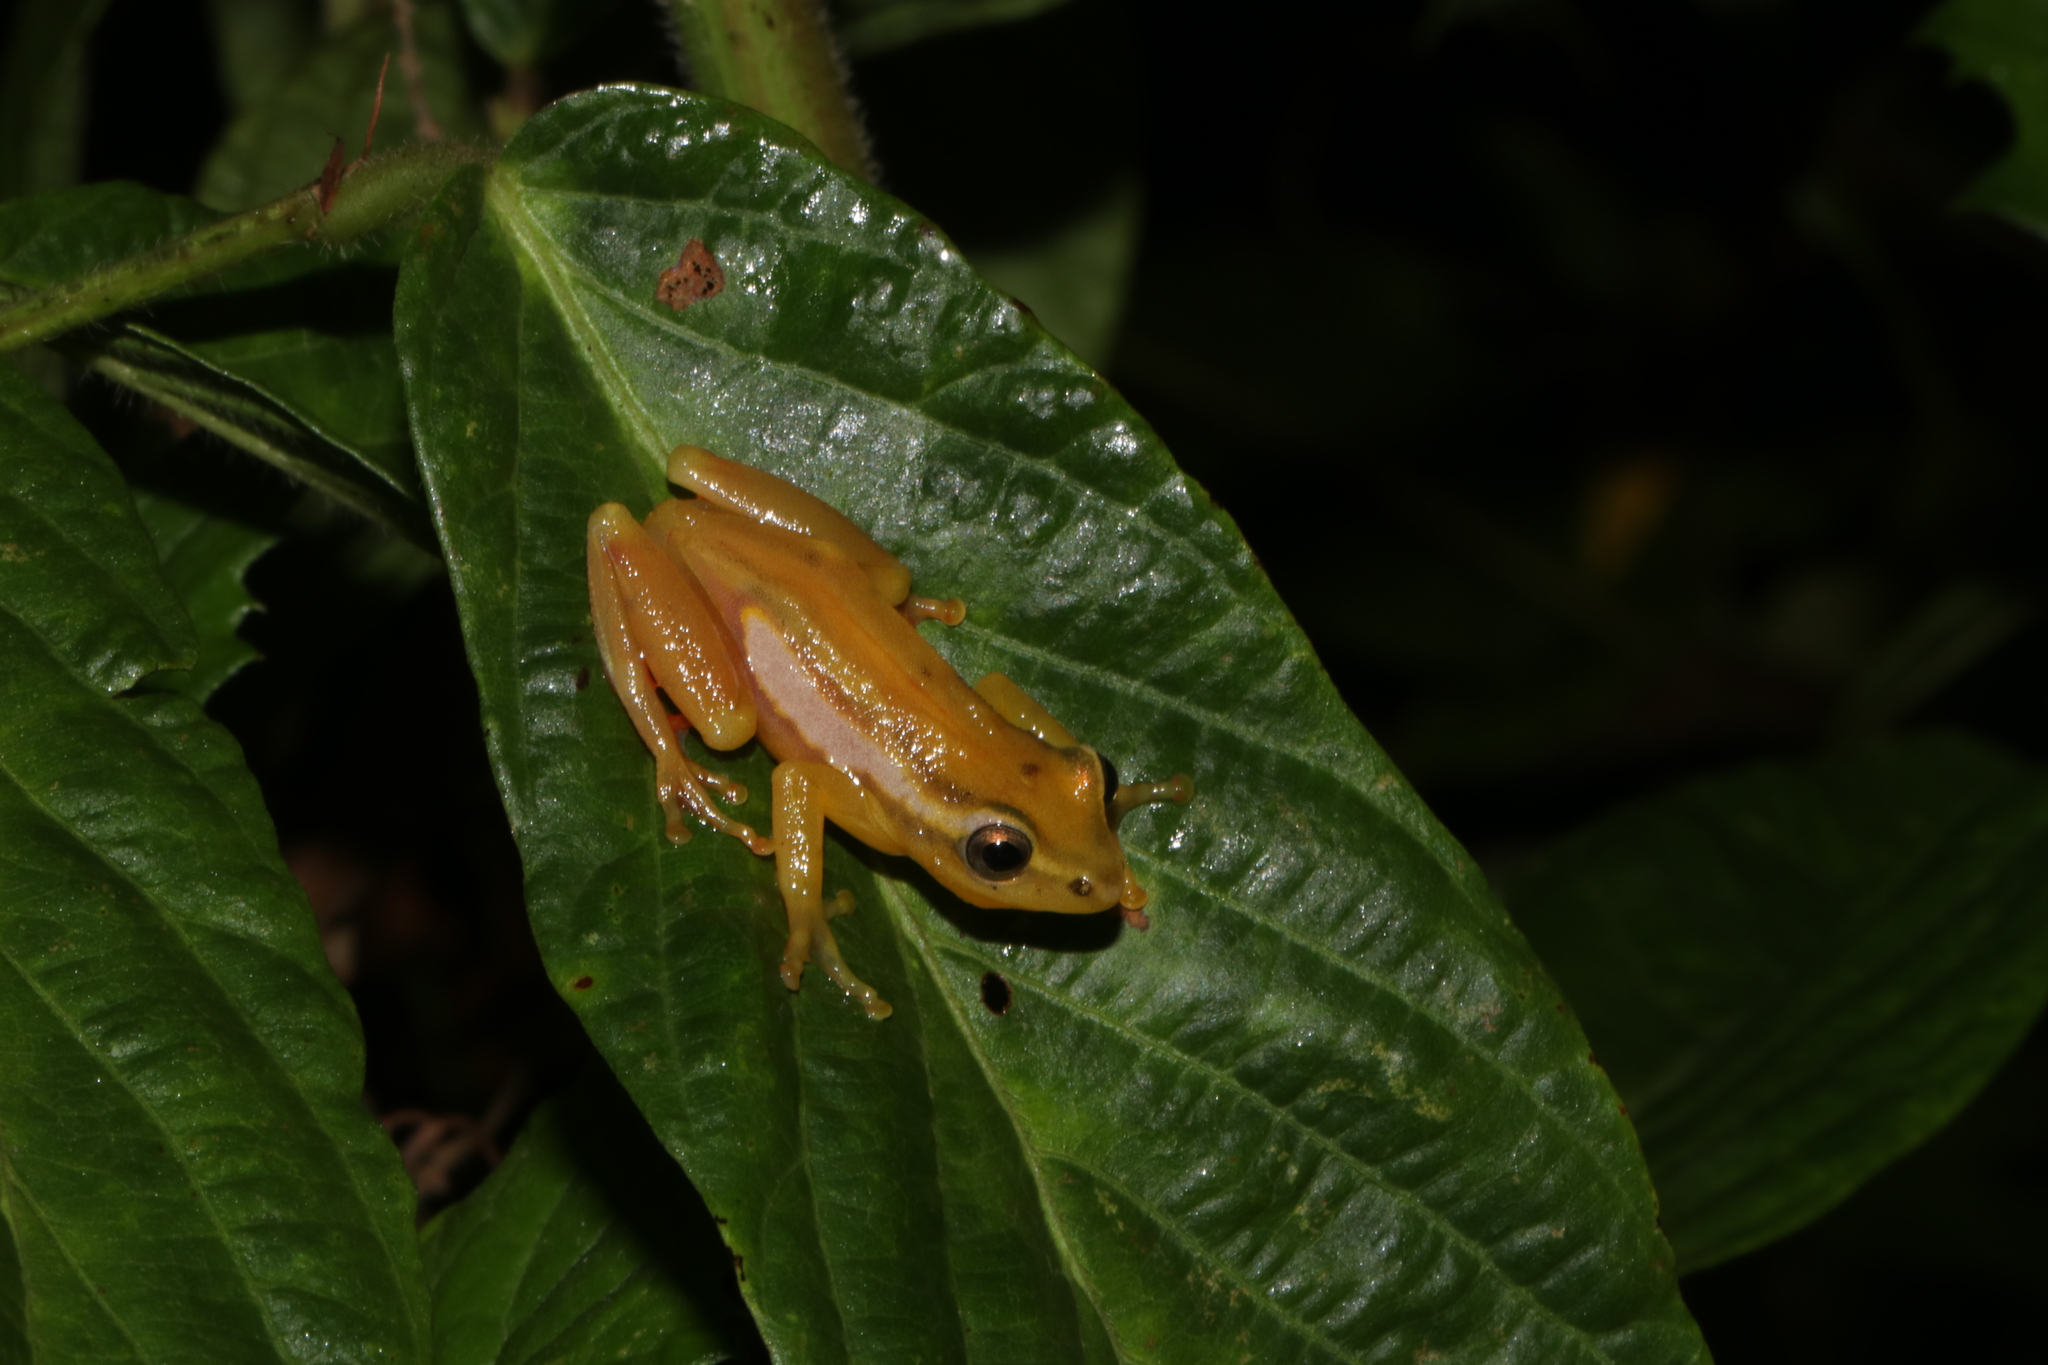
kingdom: Animalia
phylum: Chordata
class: Amphibia
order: Anura
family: Hyperoliidae
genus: Hyperolius
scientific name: Hyperolius mitchelli
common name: Mitchell's reed frog
